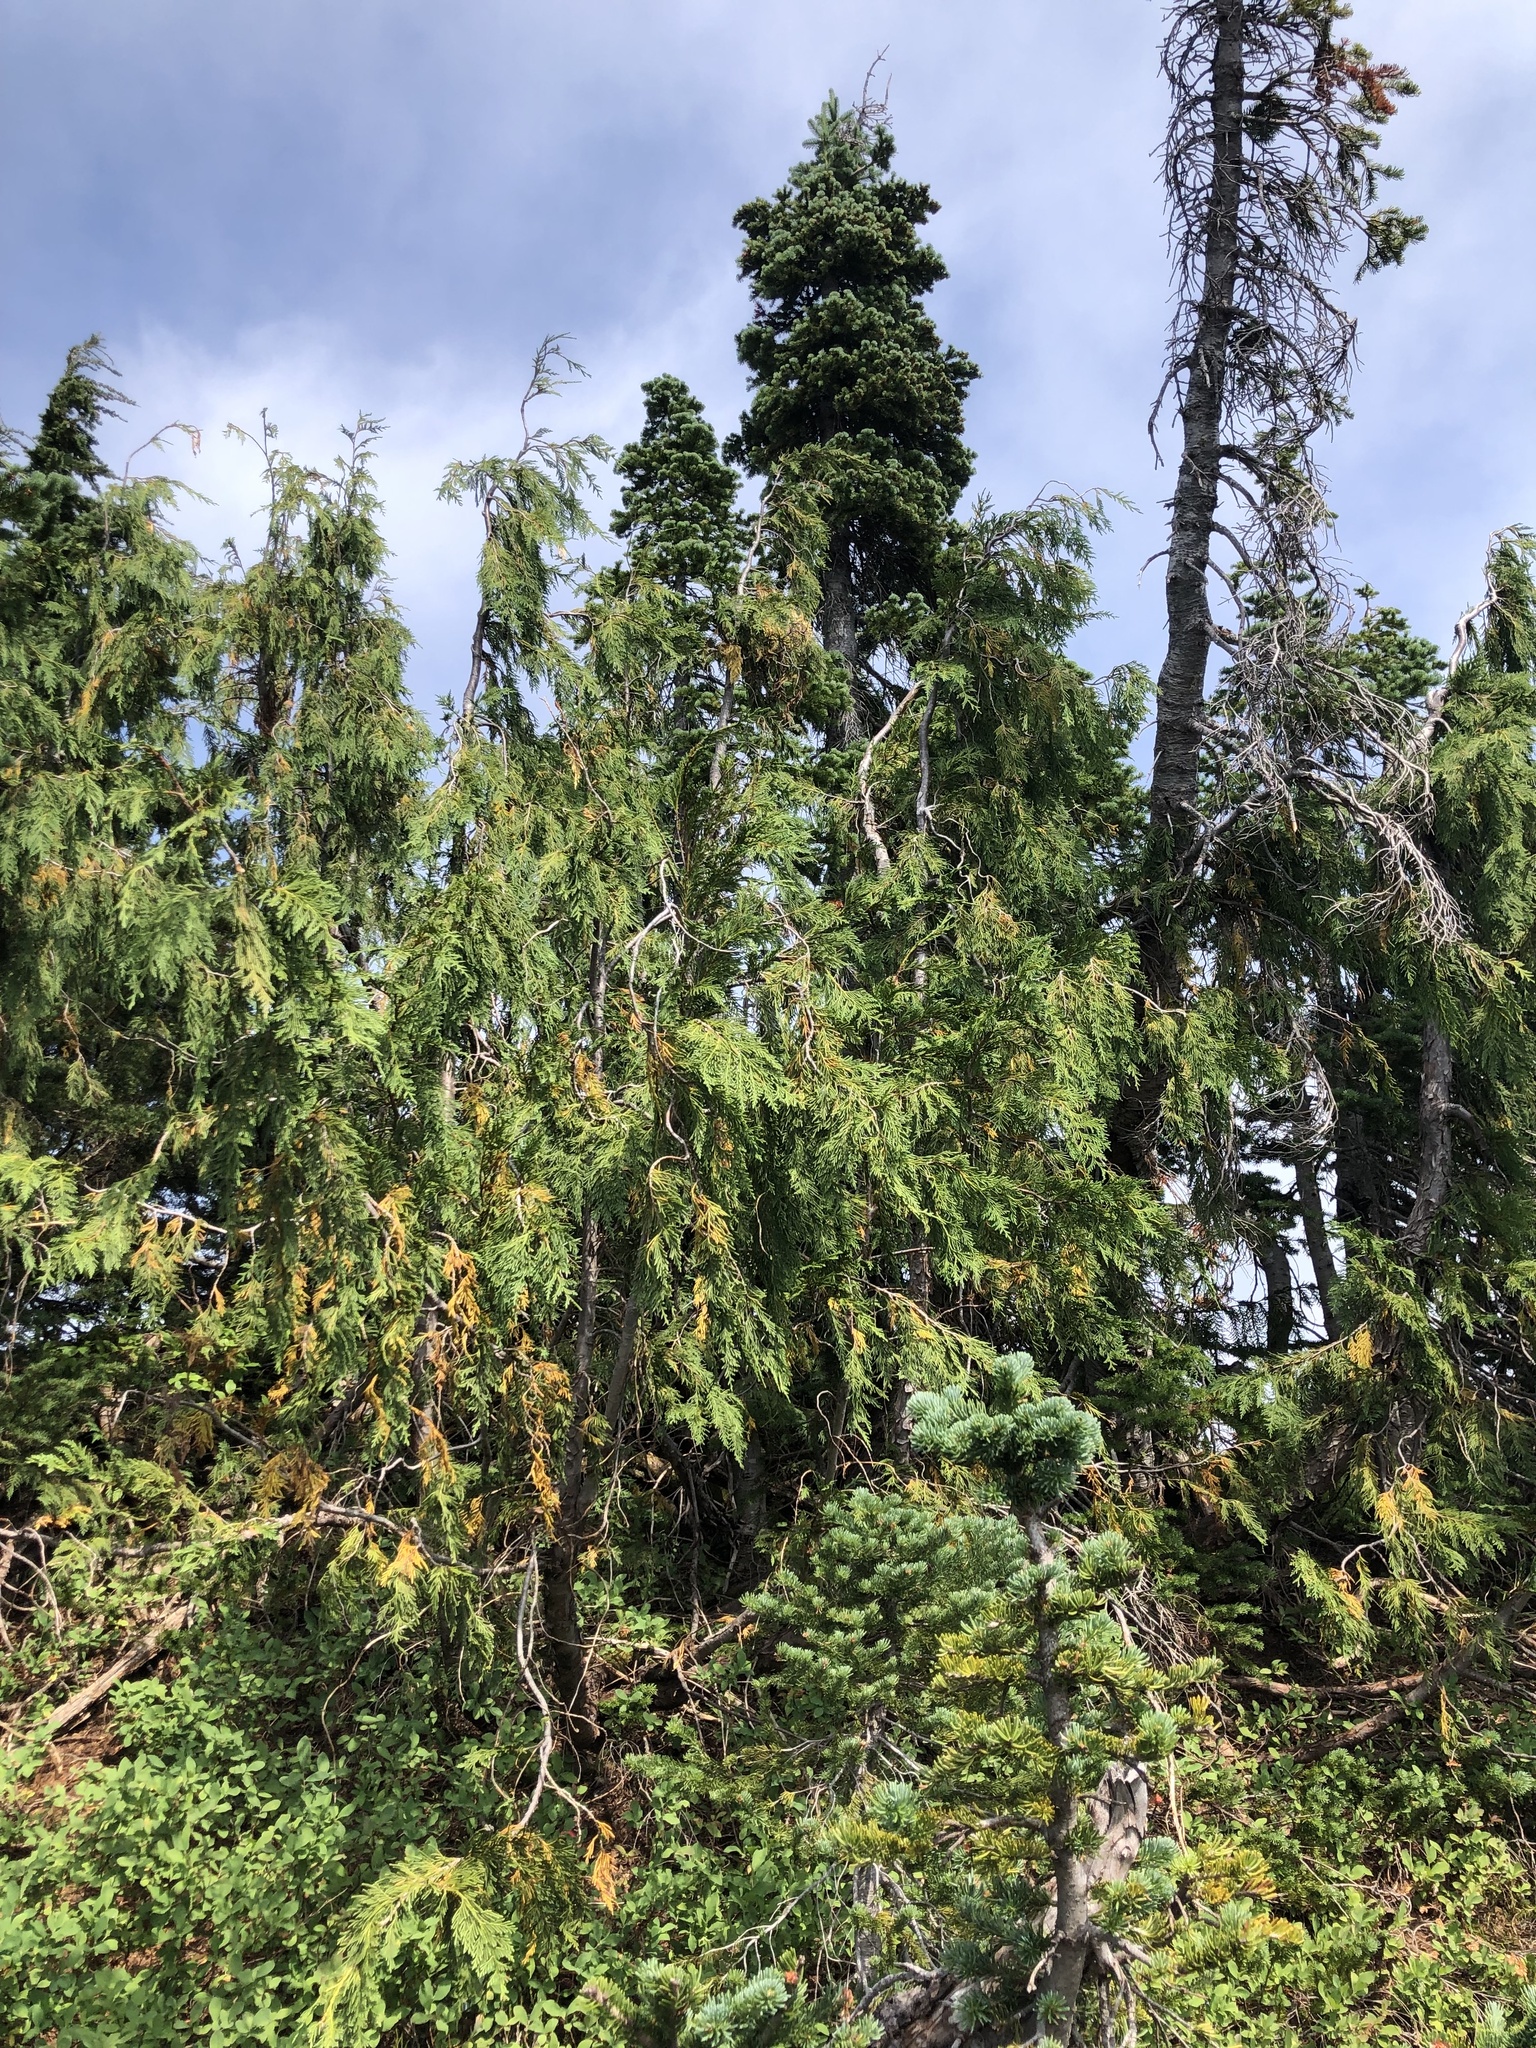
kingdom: Plantae
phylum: Tracheophyta
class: Pinopsida
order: Pinales
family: Cupressaceae
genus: Xanthocyparis
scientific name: Xanthocyparis nootkatensis
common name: Nootka cypress
